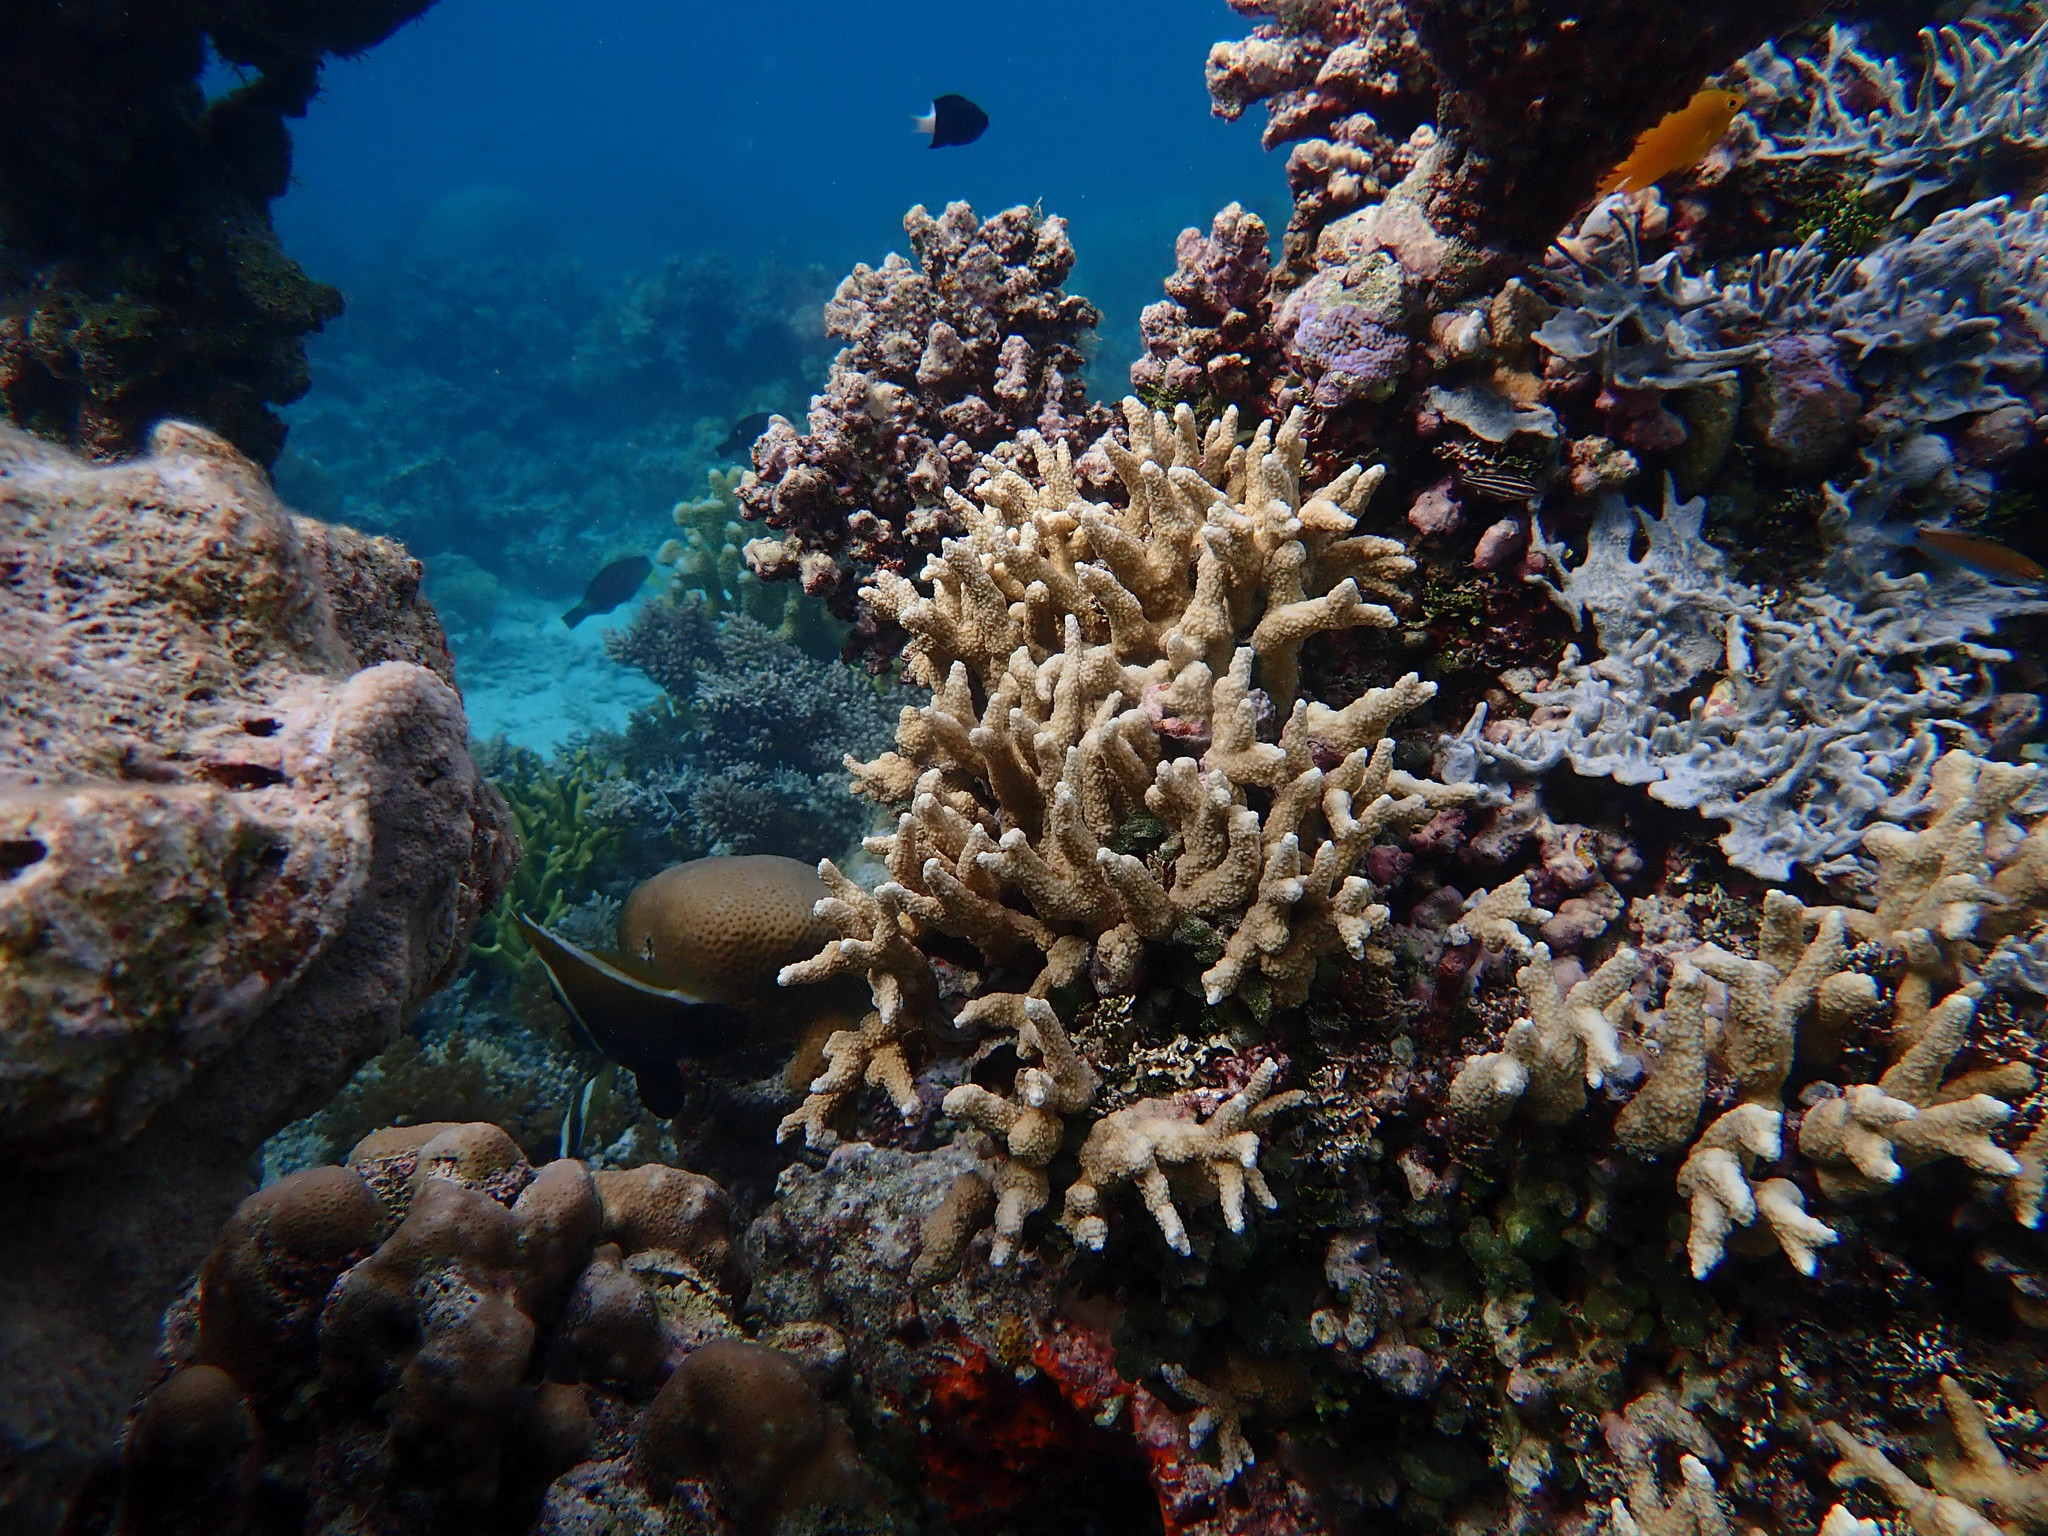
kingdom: Animalia
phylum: Chordata
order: Perciformes
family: Chaetodontidae
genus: Heniochus
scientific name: Heniochus varius
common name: Horned bannerfish
